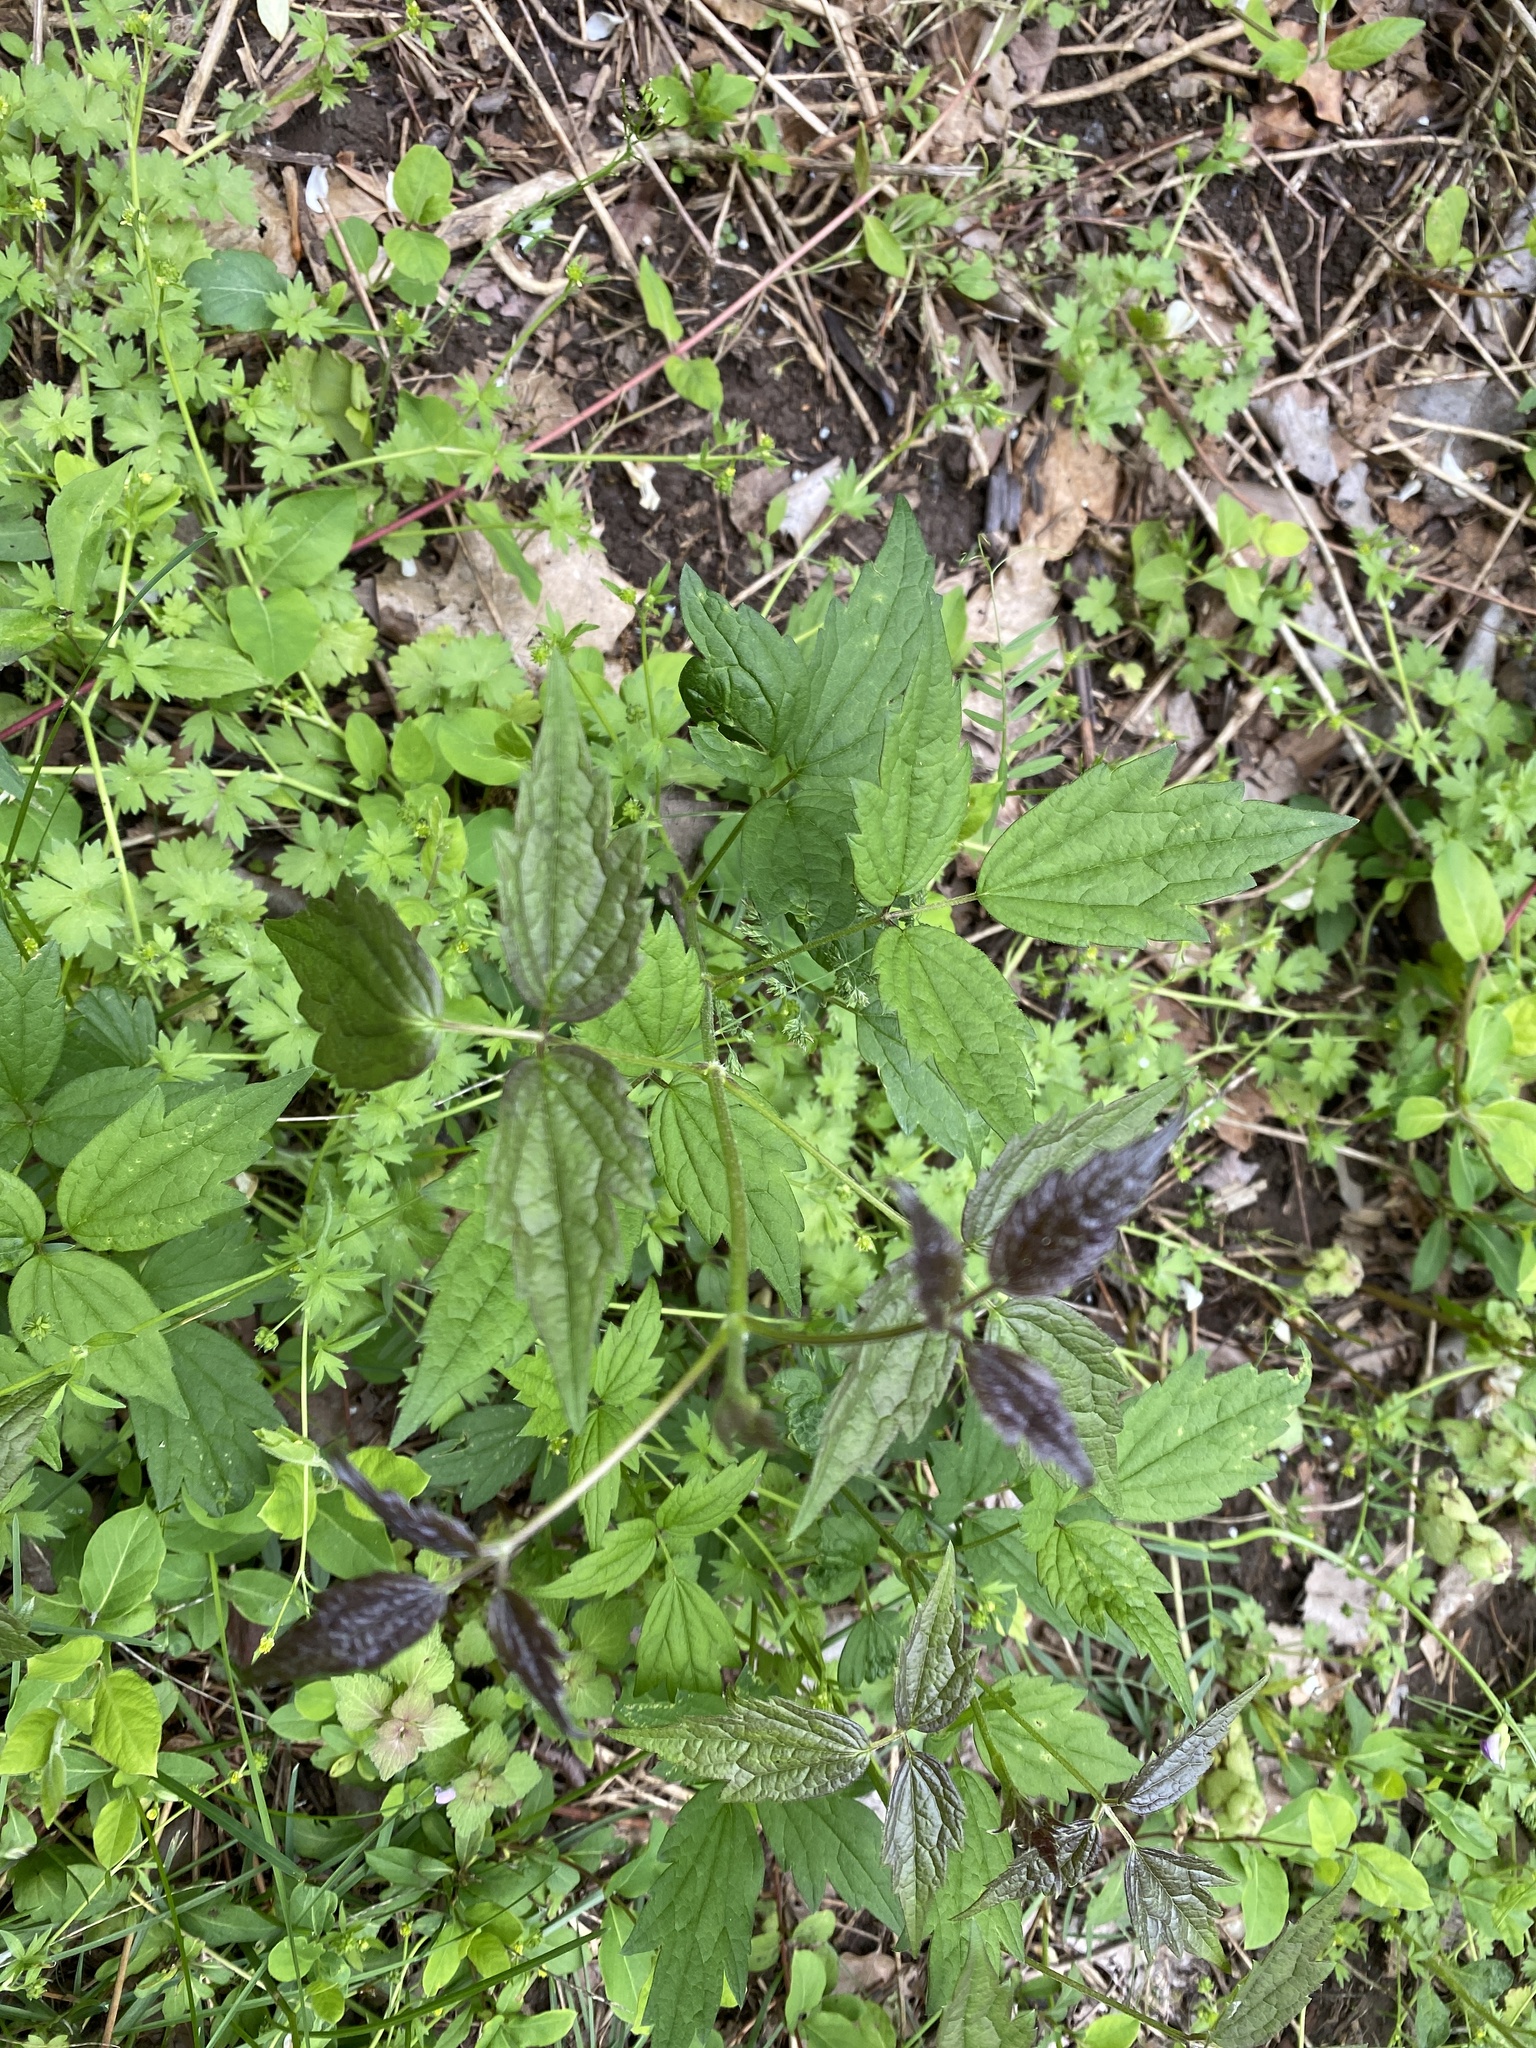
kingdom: Plantae
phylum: Tracheophyta
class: Magnoliopsida
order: Ranunculales
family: Ranunculaceae
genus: Clematis
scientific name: Clematis virginiana
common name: Virgin's-bower
